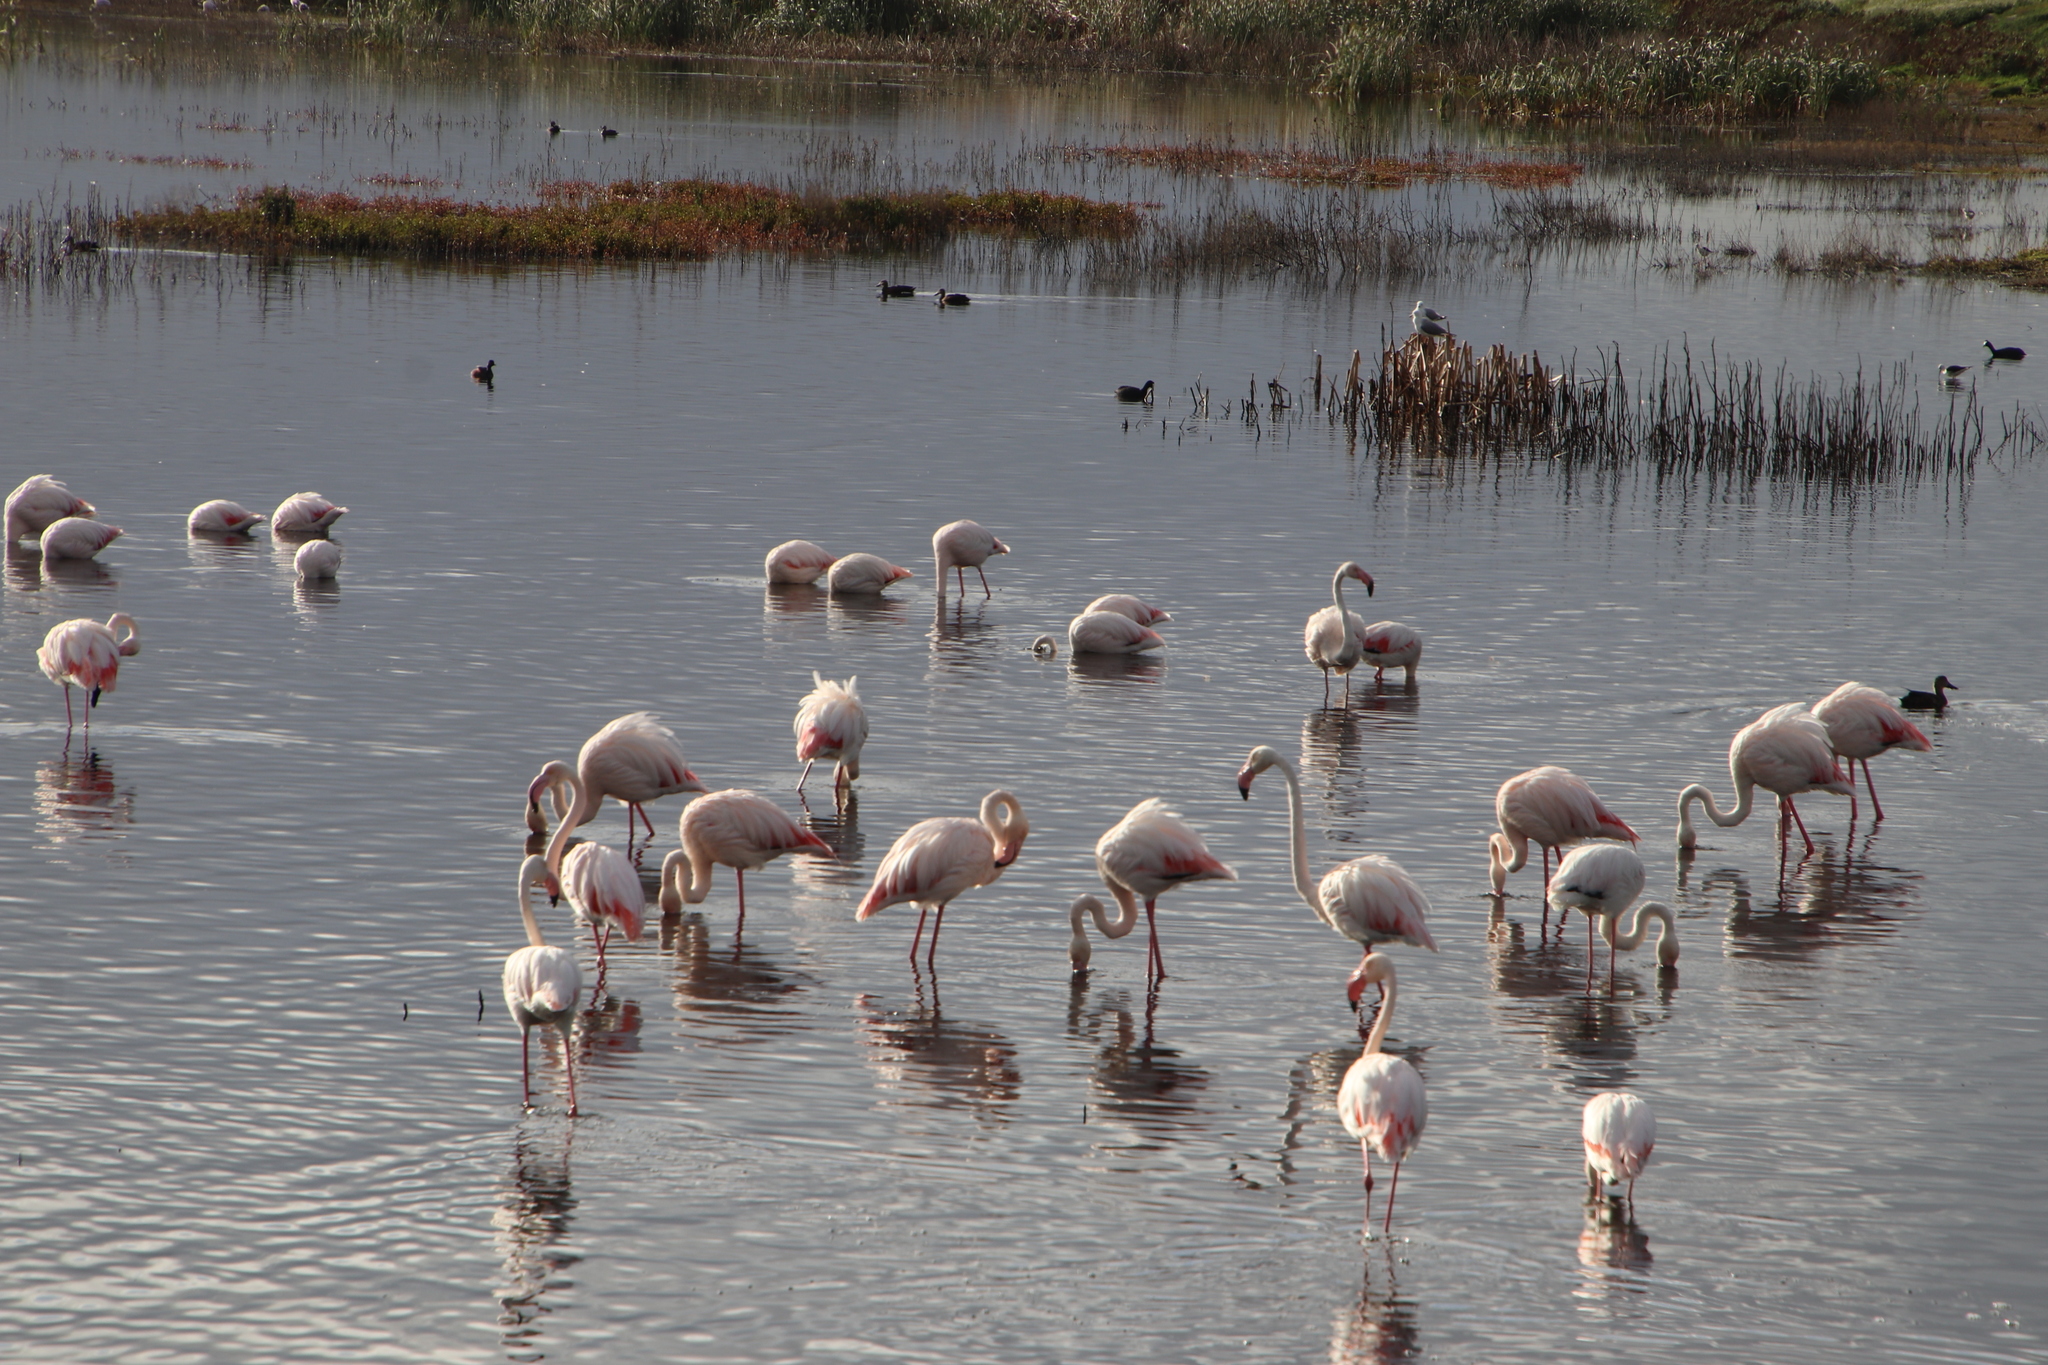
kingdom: Animalia
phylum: Chordata
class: Aves
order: Phoenicopteriformes
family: Phoenicopteridae
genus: Phoenicopterus
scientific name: Phoenicopterus roseus
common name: Greater flamingo
